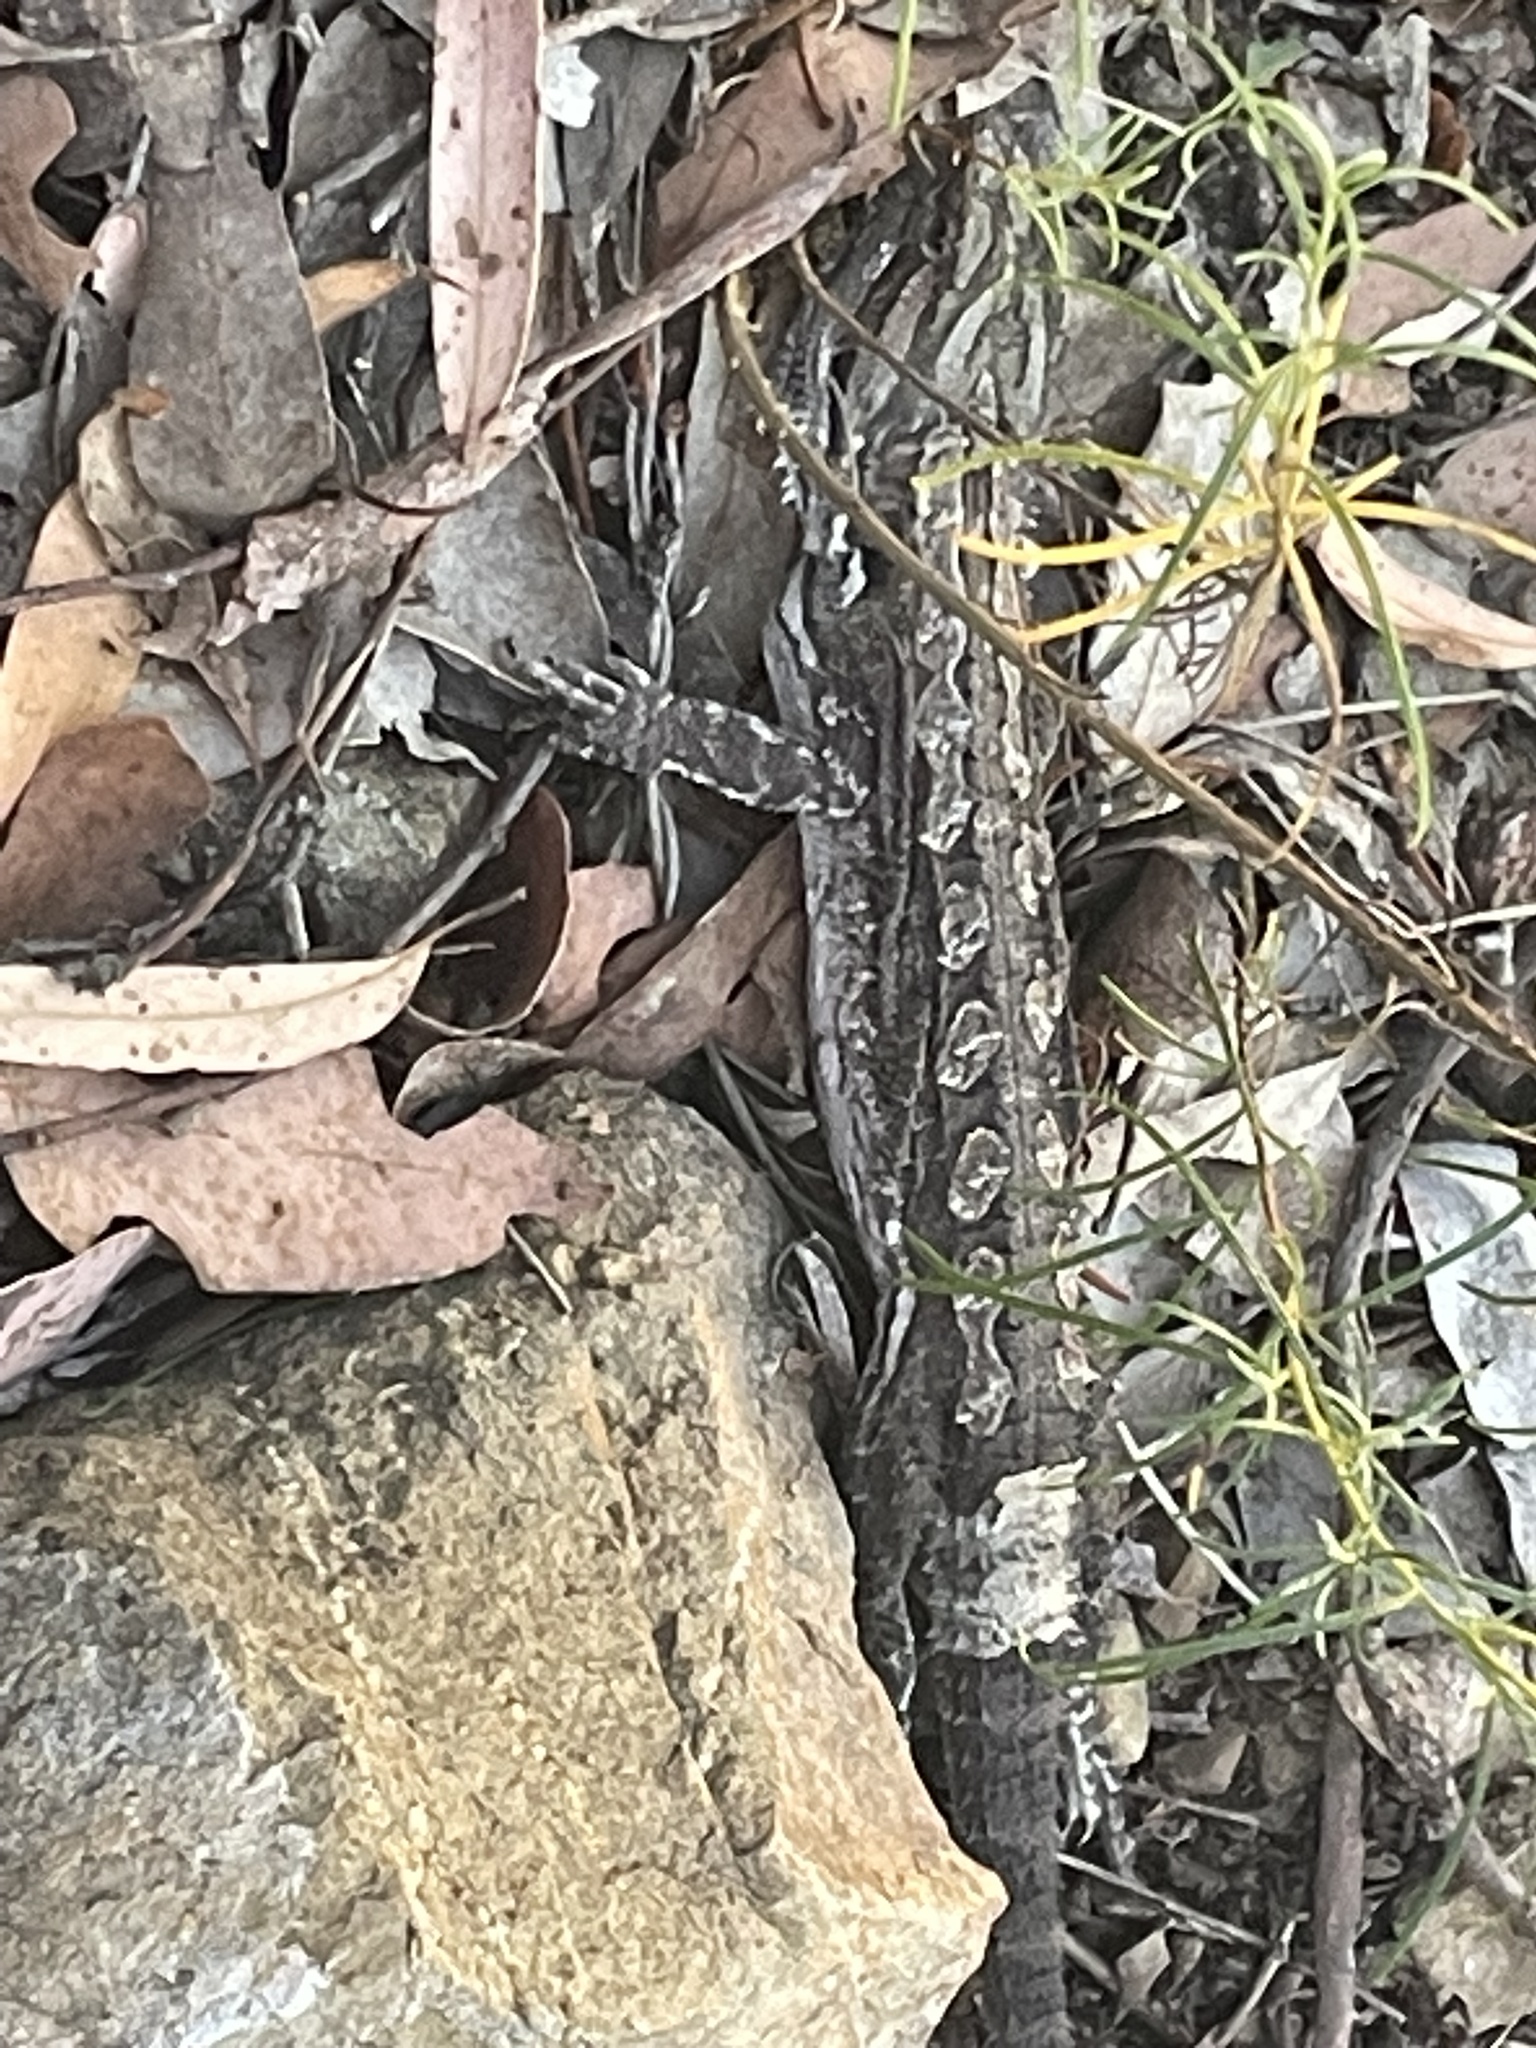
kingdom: Animalia
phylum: Chordata
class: Squamata
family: Agamidae
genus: Pogona
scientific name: Pogona barbata
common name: Bearded dragon
